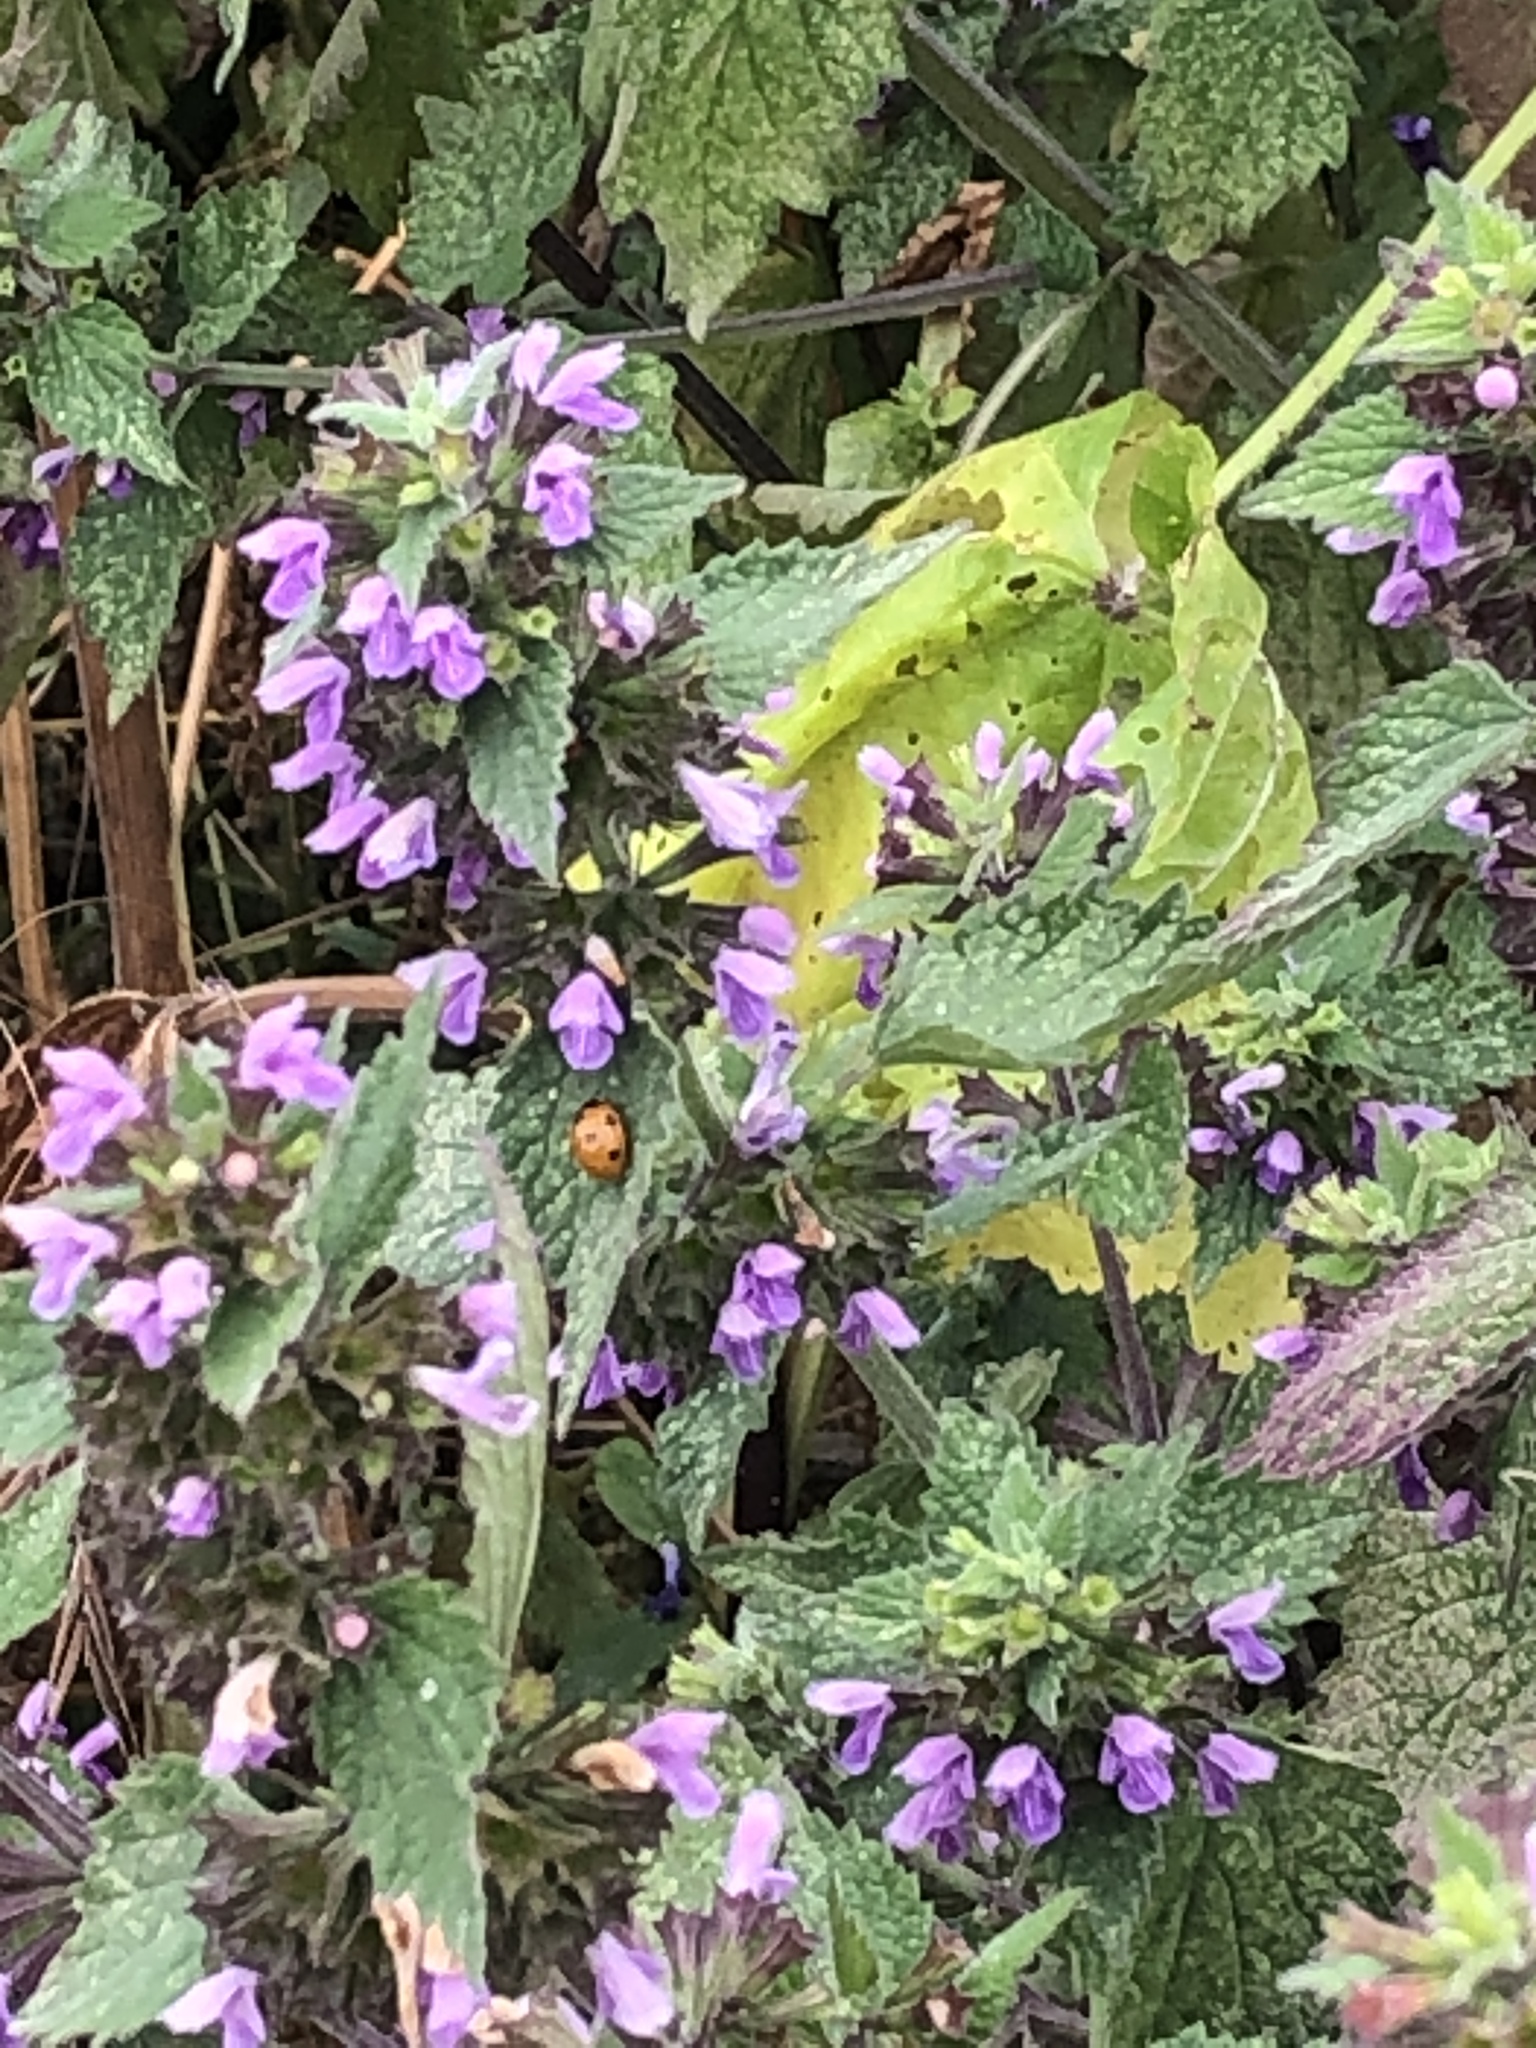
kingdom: Animalia
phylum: Arthropoda
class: Insecta
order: Coleoptera
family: Coccinellidae
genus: Coccinella
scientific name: Coccinella septempunctata
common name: Sevenspotted lady beetle
